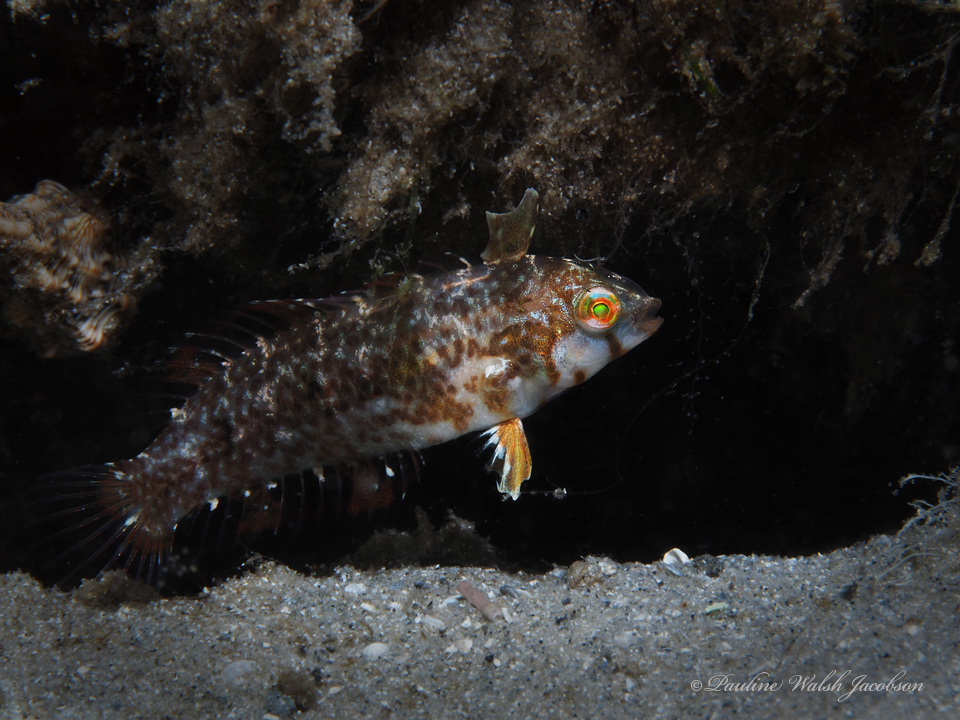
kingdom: Animalia
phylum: Chordata
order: Perciformes
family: Labridae
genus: Xyrichtys
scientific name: Xyrichtys splendens
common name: Green razorfish
